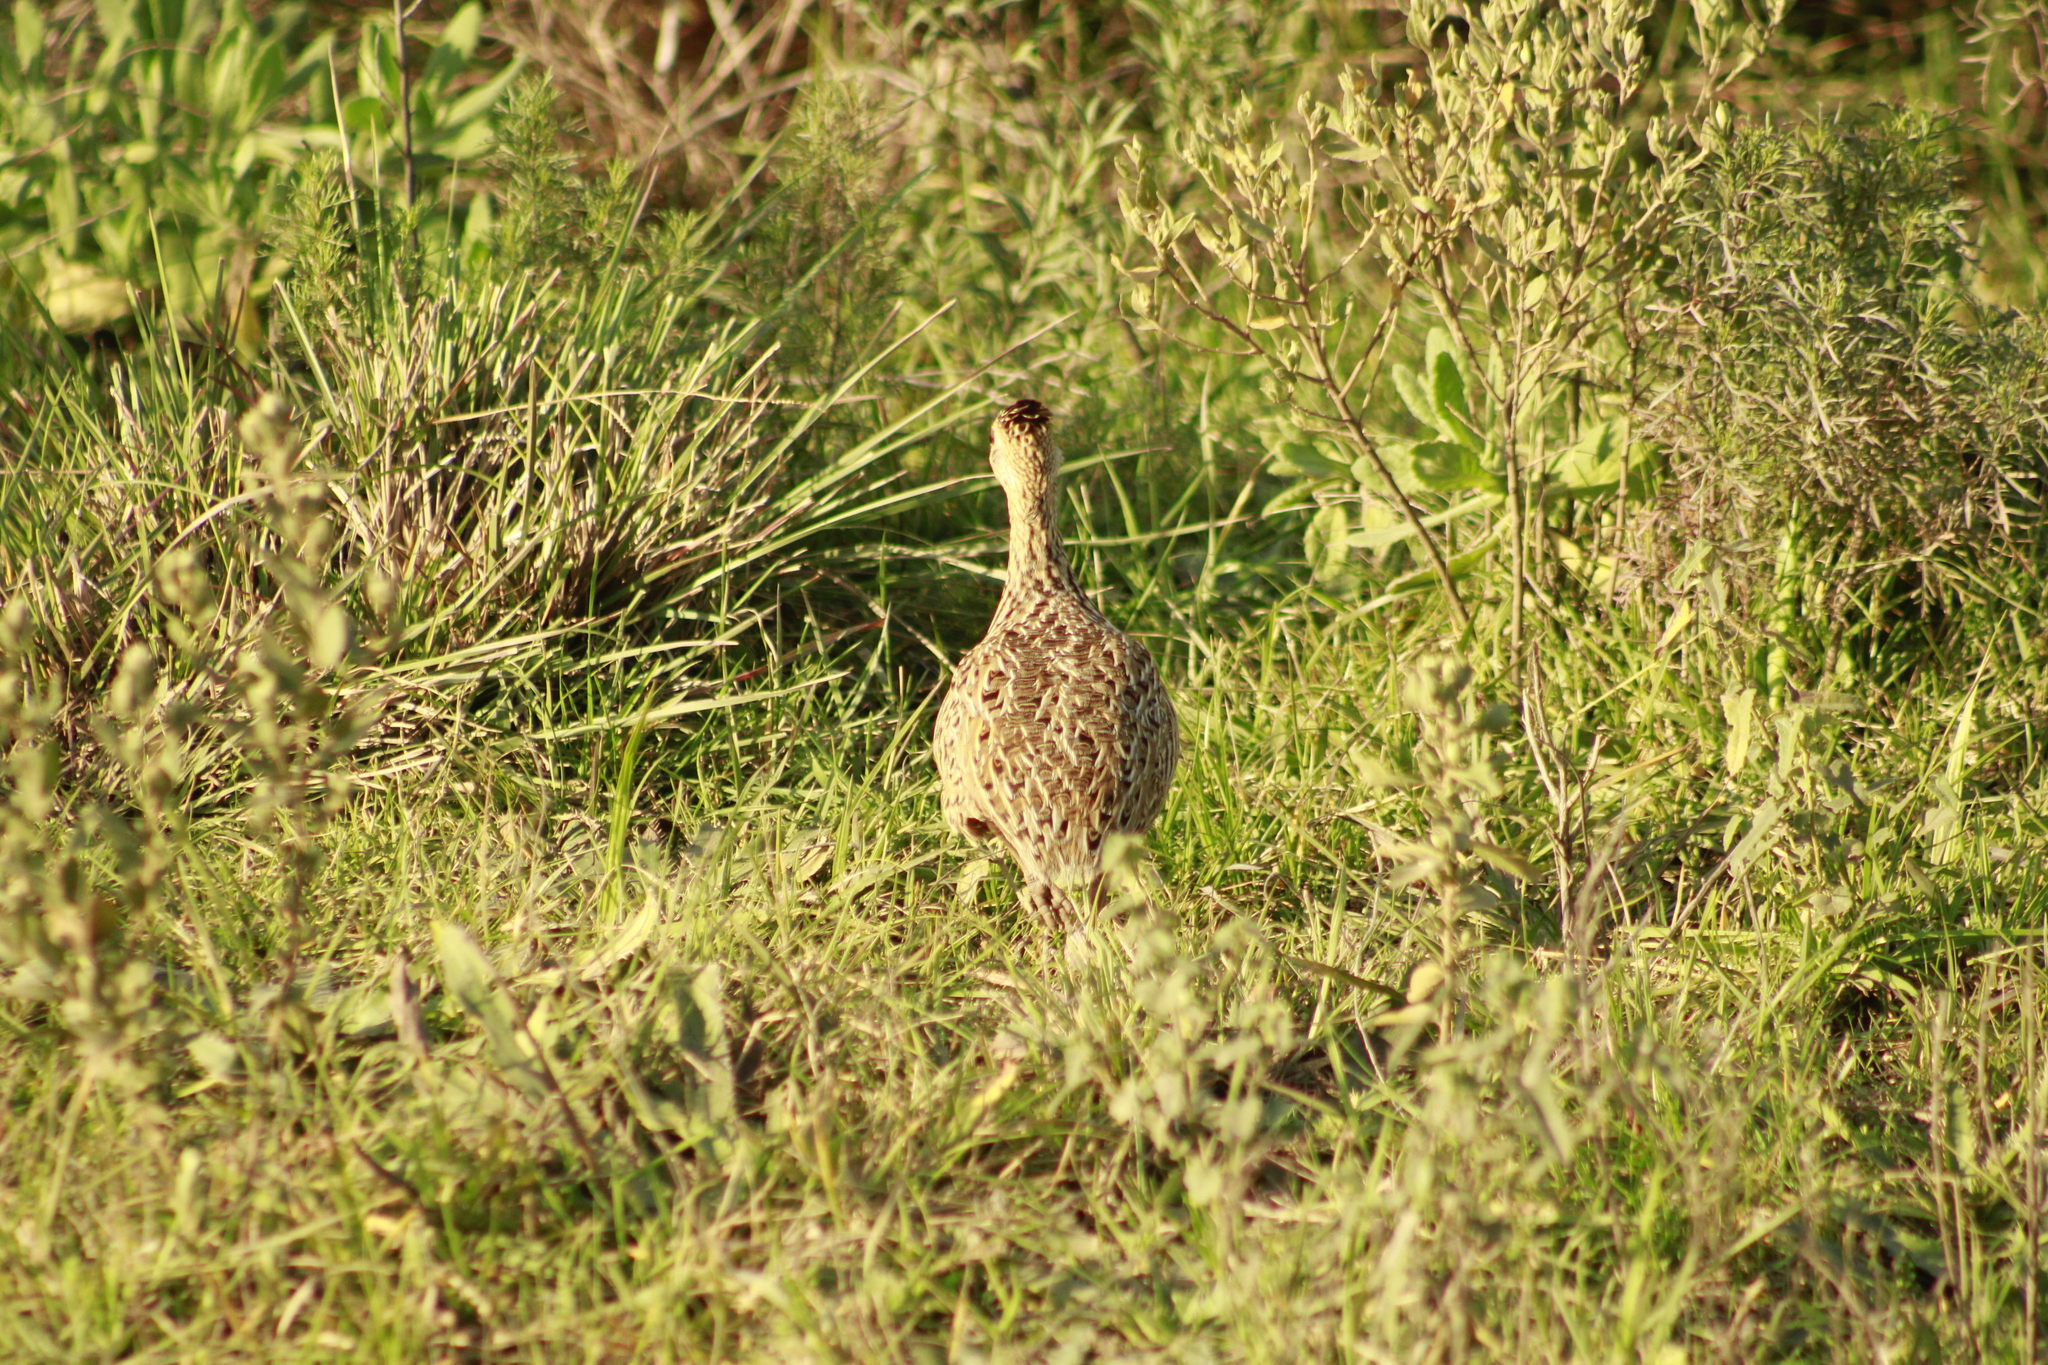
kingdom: Animalia
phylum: Chordata
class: Aves
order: Tinamiformes
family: Tinamidae
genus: Nothura
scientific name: Nothura maculosa
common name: Spotted nothura
